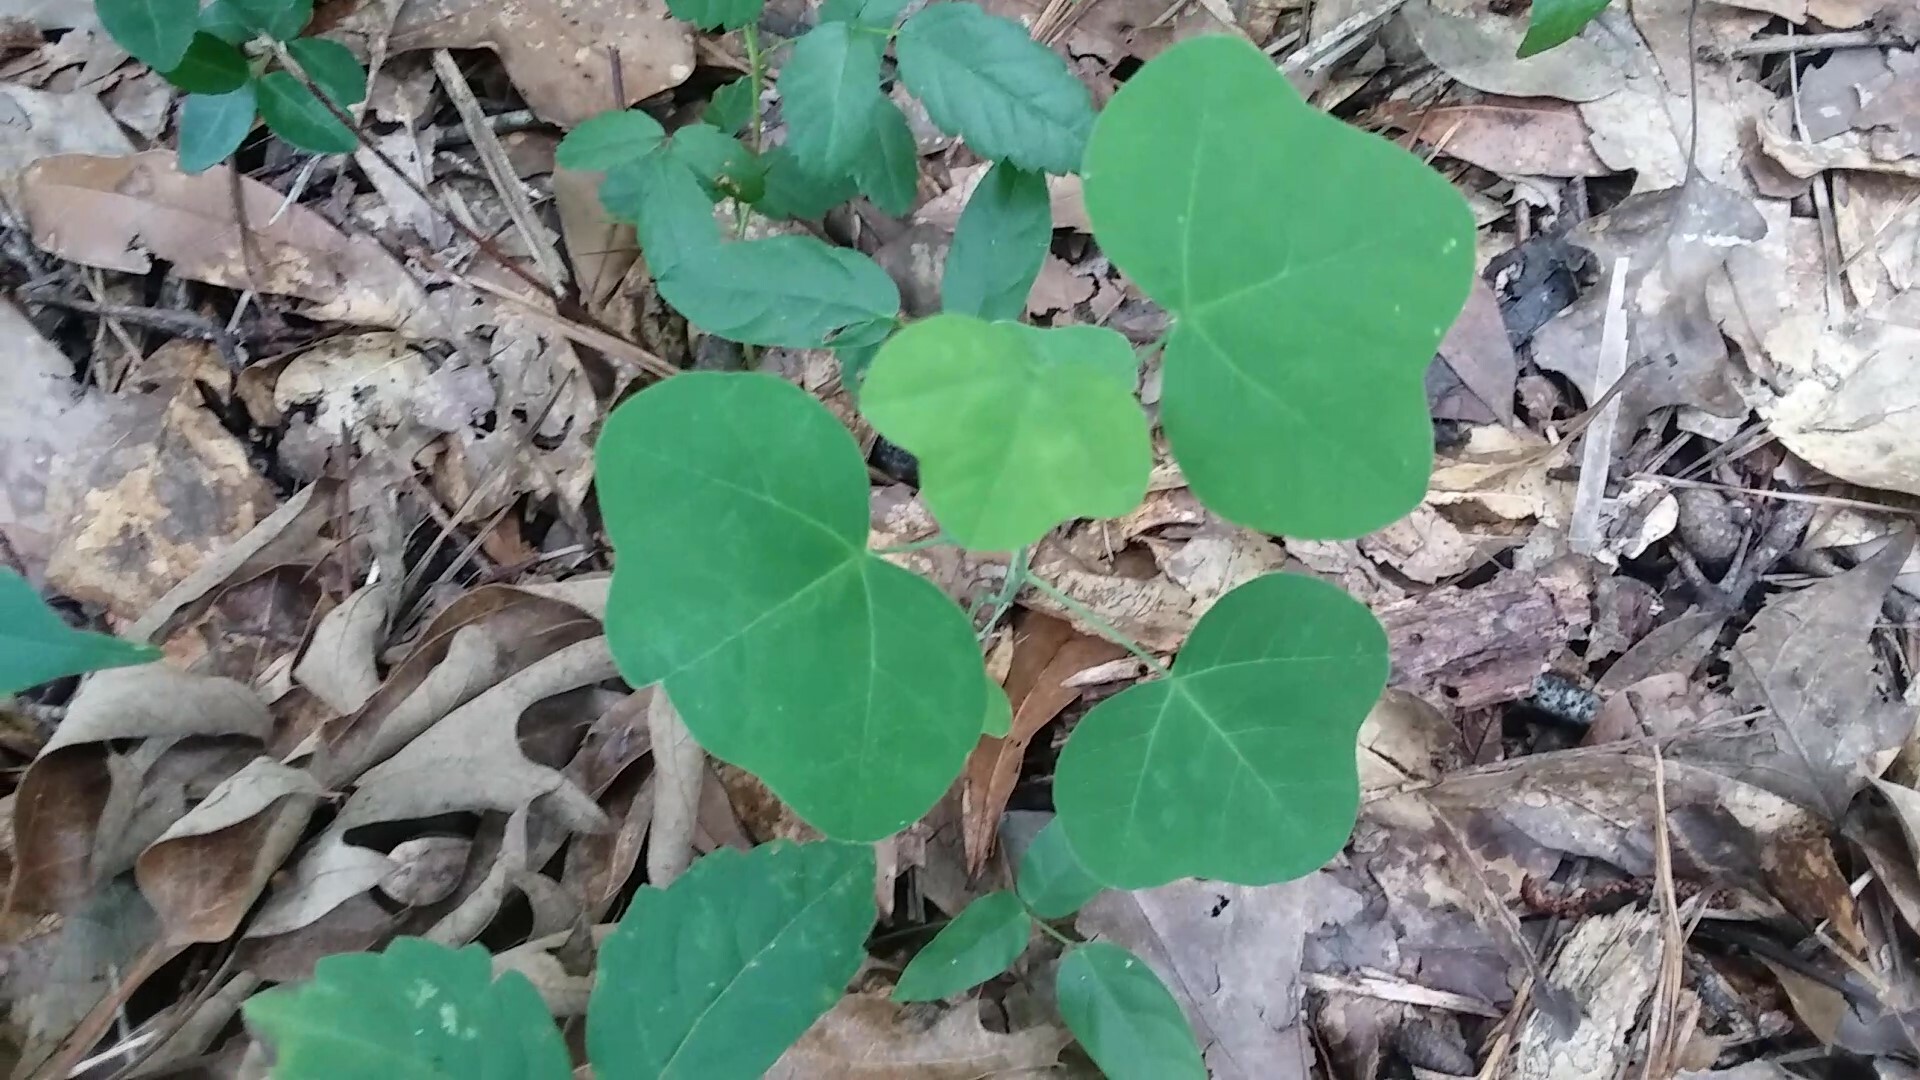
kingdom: Plantae
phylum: Tracheophyta
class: Magnoliopsida
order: Malpighiales
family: Passifloraceae
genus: Passiflora
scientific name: Passiflora lutea
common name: Yellow passionflower
